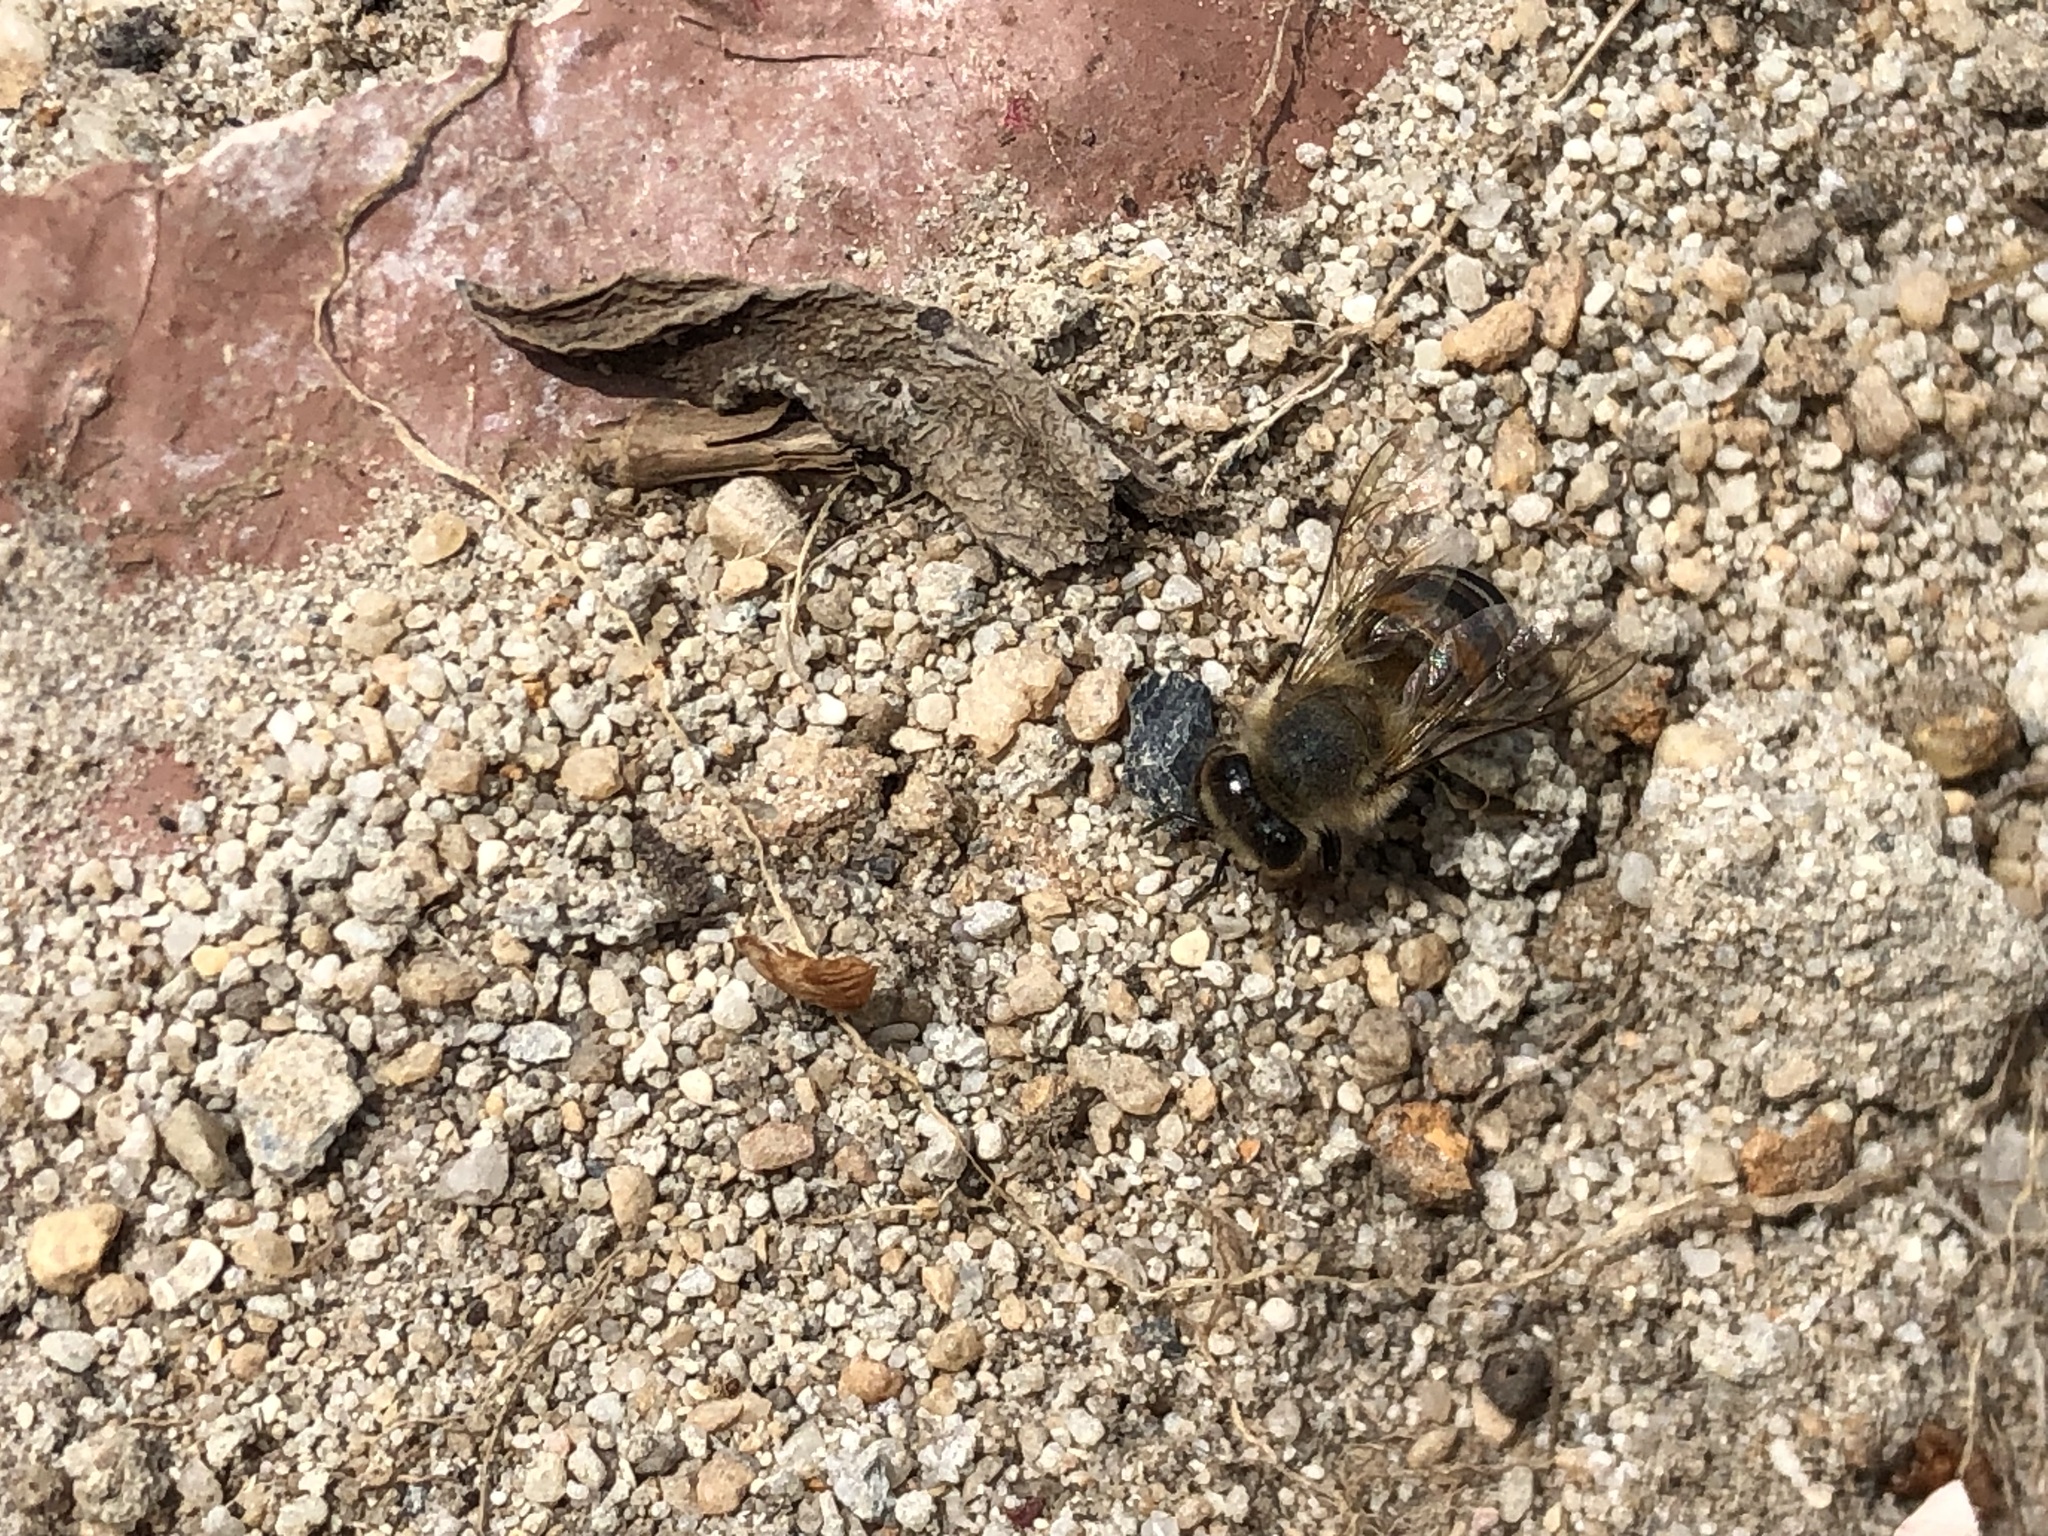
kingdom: Animalia
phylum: Arthropoda
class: Insecta
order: Hymenoptera
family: Apidae
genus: Apis
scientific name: Apis mellifera
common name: Honey bee
